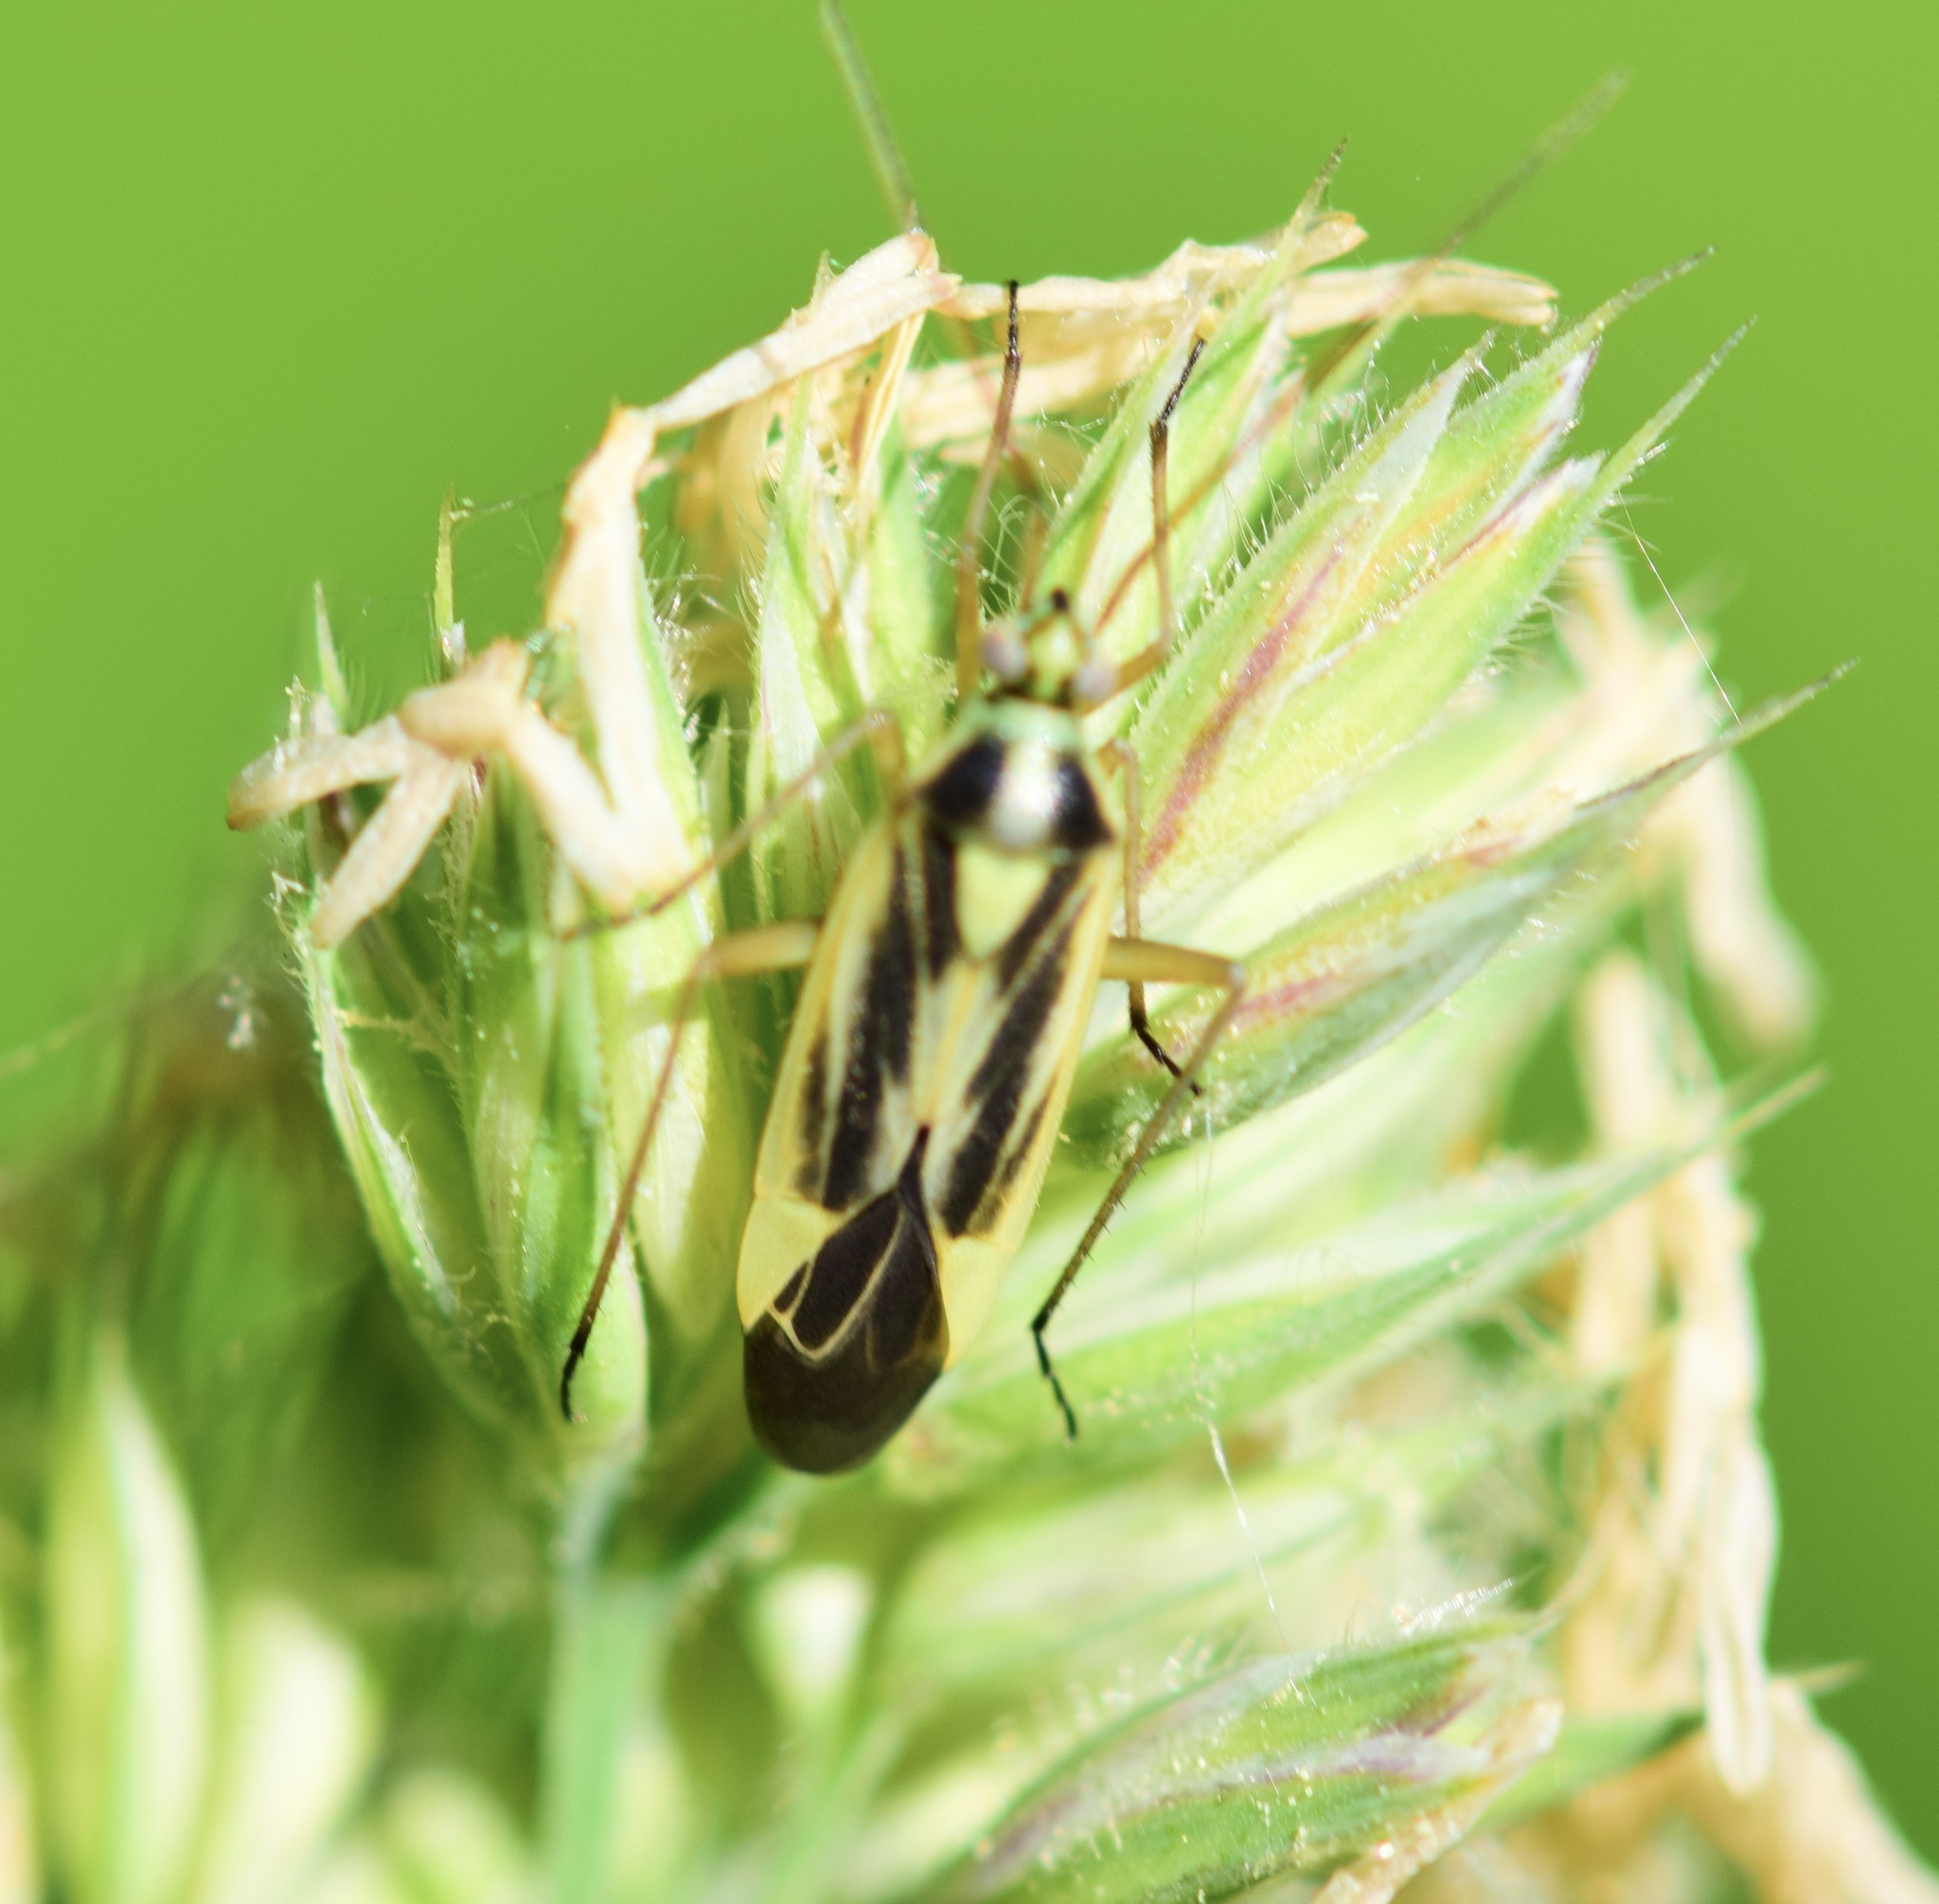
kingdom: Animalia
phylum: Arthropoda
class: Insecta
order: Hemiptera
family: Miridae
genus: Stenotus
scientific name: Stenotus binotatus
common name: Plant bug
